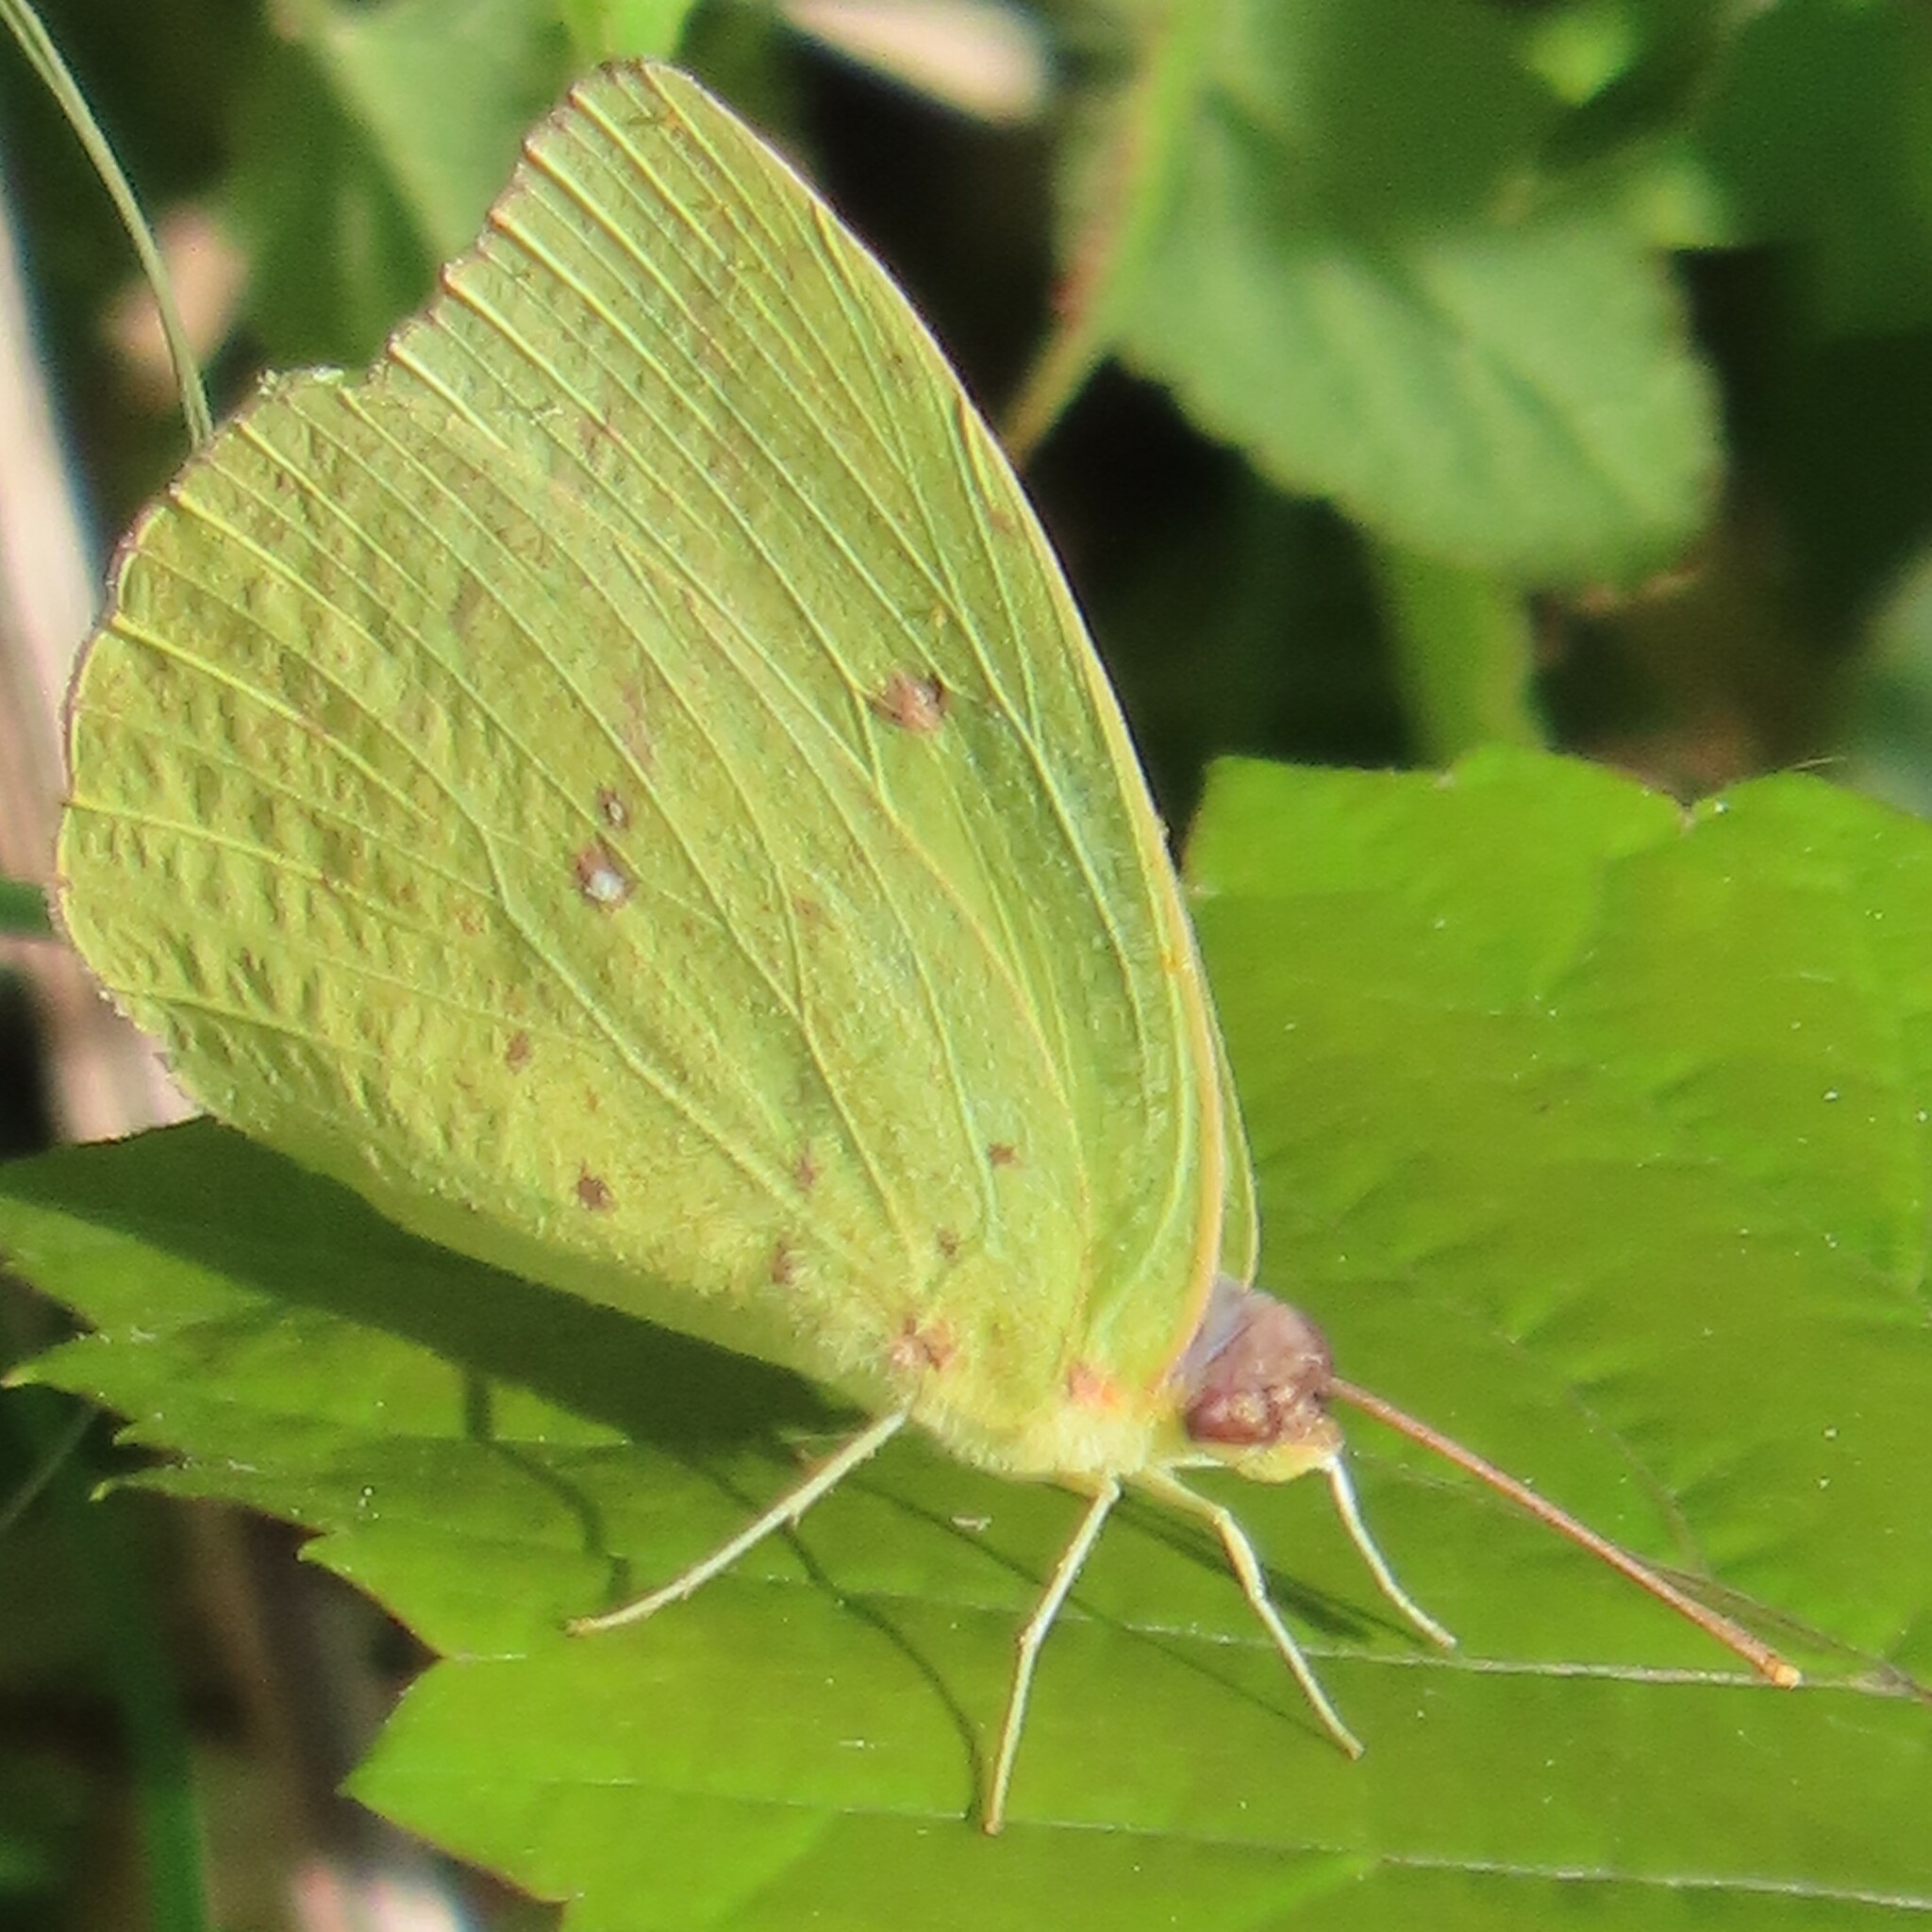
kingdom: Animalia
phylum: Arthropoda
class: Insecta
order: Lepidoptera
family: Pieridae
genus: Phoebis
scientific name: Phoebis sennae
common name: Cloudless sulphur
